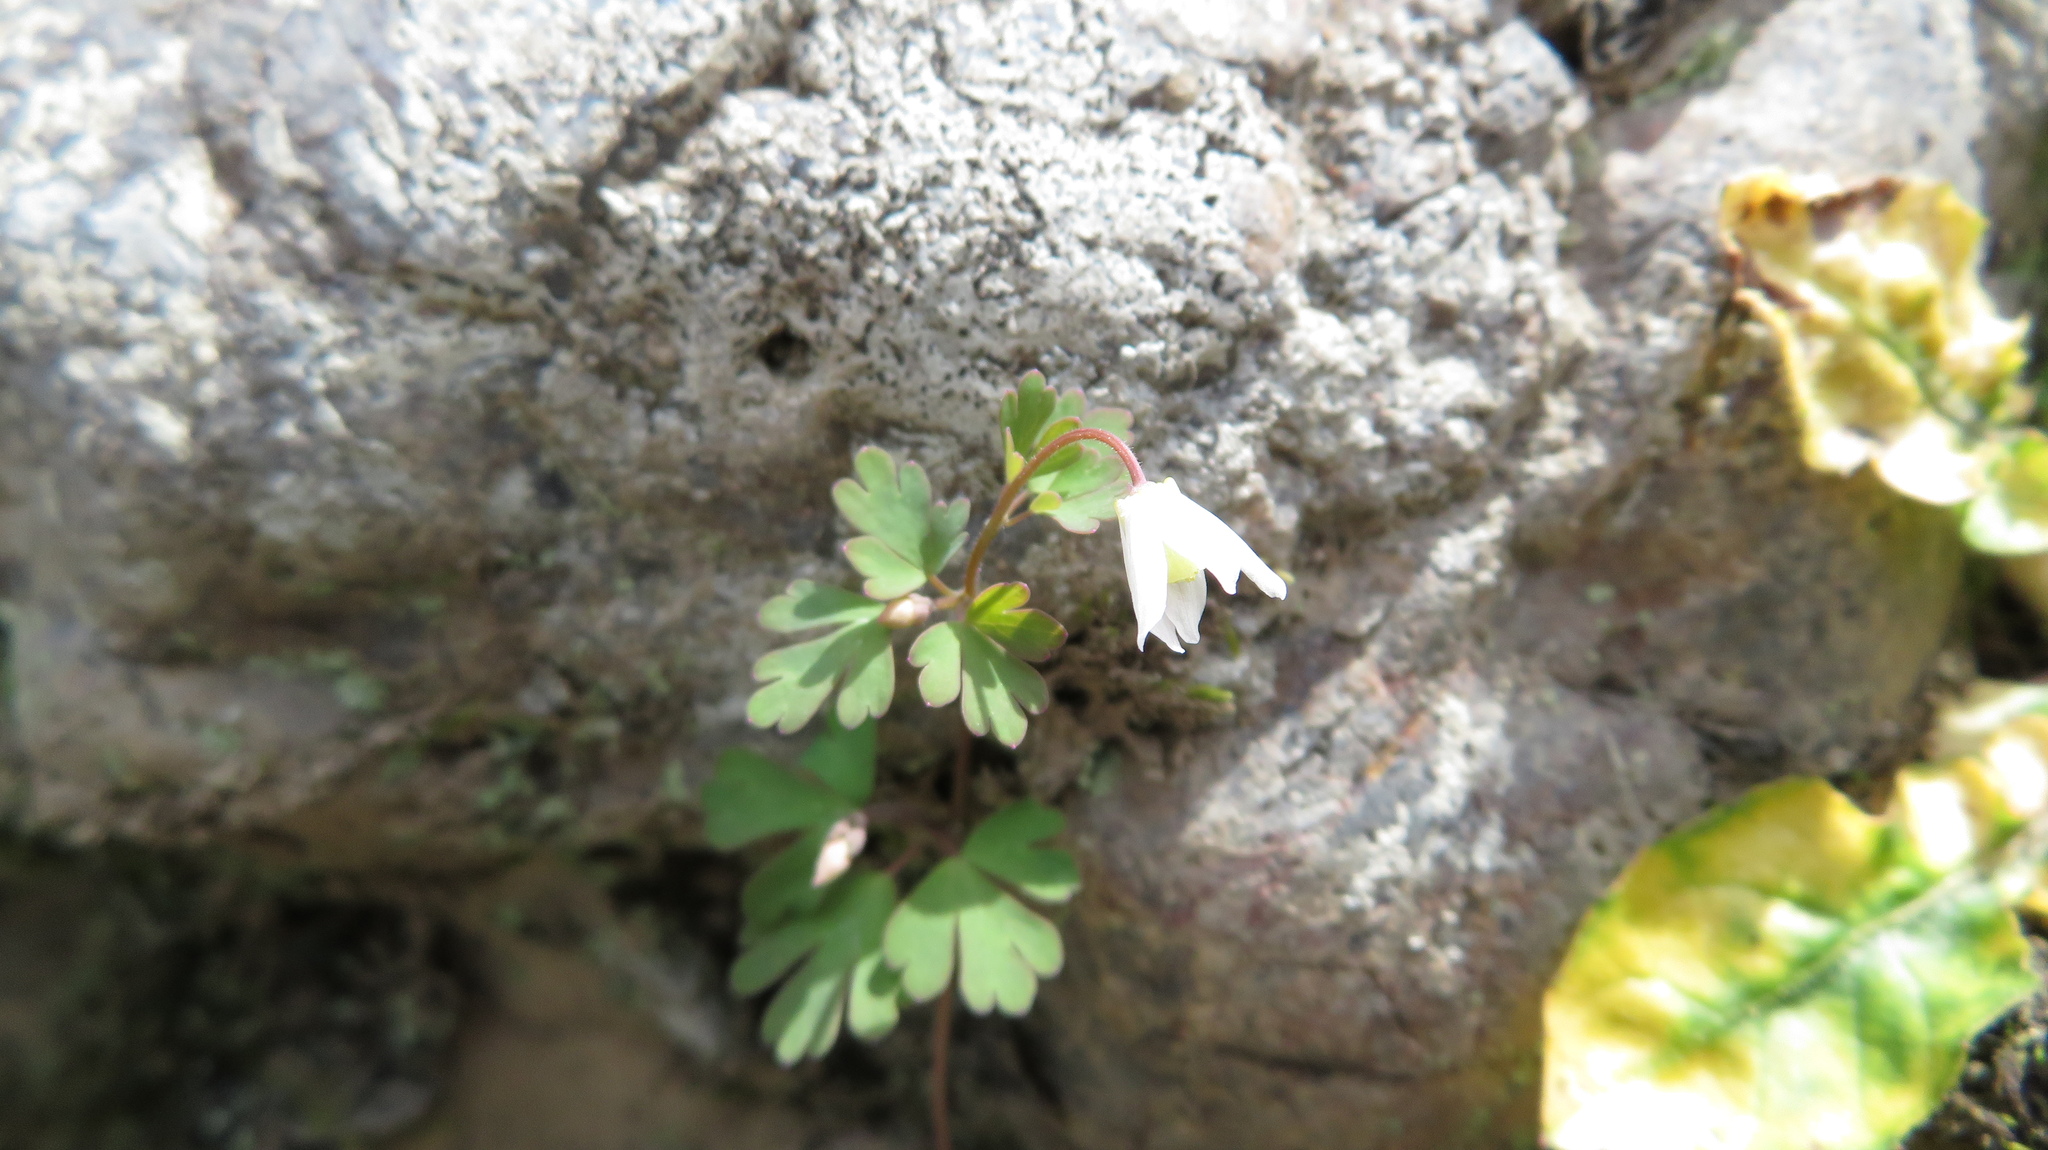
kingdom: Plantae
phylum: Tracheophyta
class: Magnoliopsida
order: Ranunculales
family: Ranunculaceae
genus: Semiaquilegia
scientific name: Semiaquilegia adoxoides
